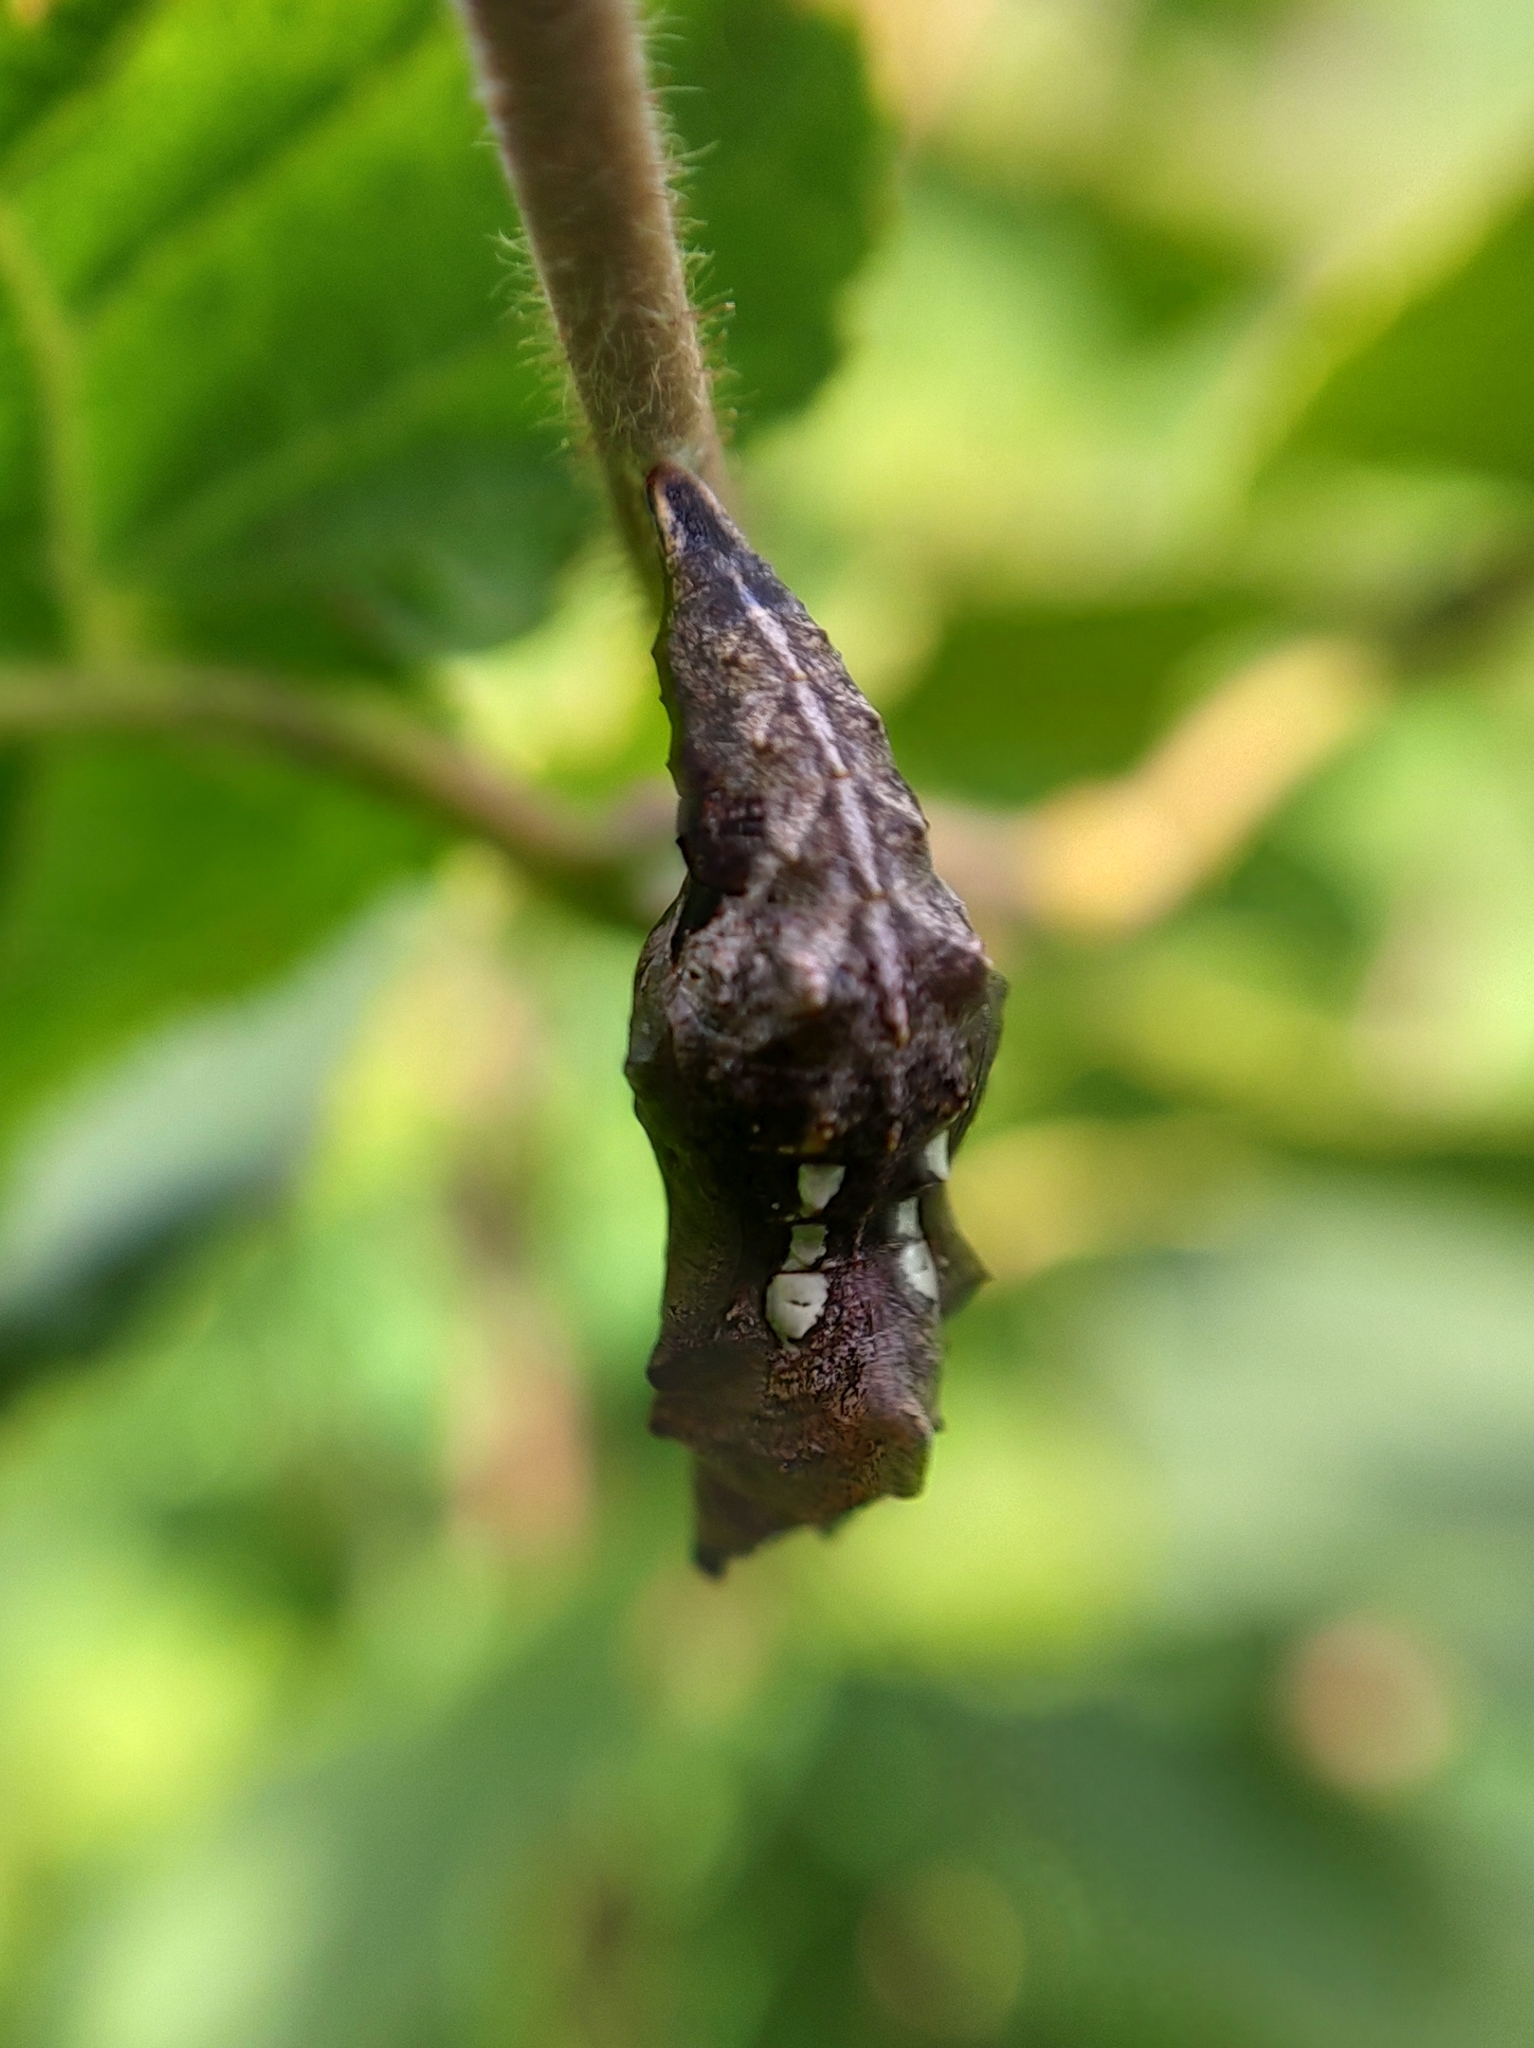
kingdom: Animalia
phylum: Arthropoda
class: Insecta
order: Lepidoptera
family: Nymphalidae
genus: Polygonia
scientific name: Polygonia c-album
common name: Comma
